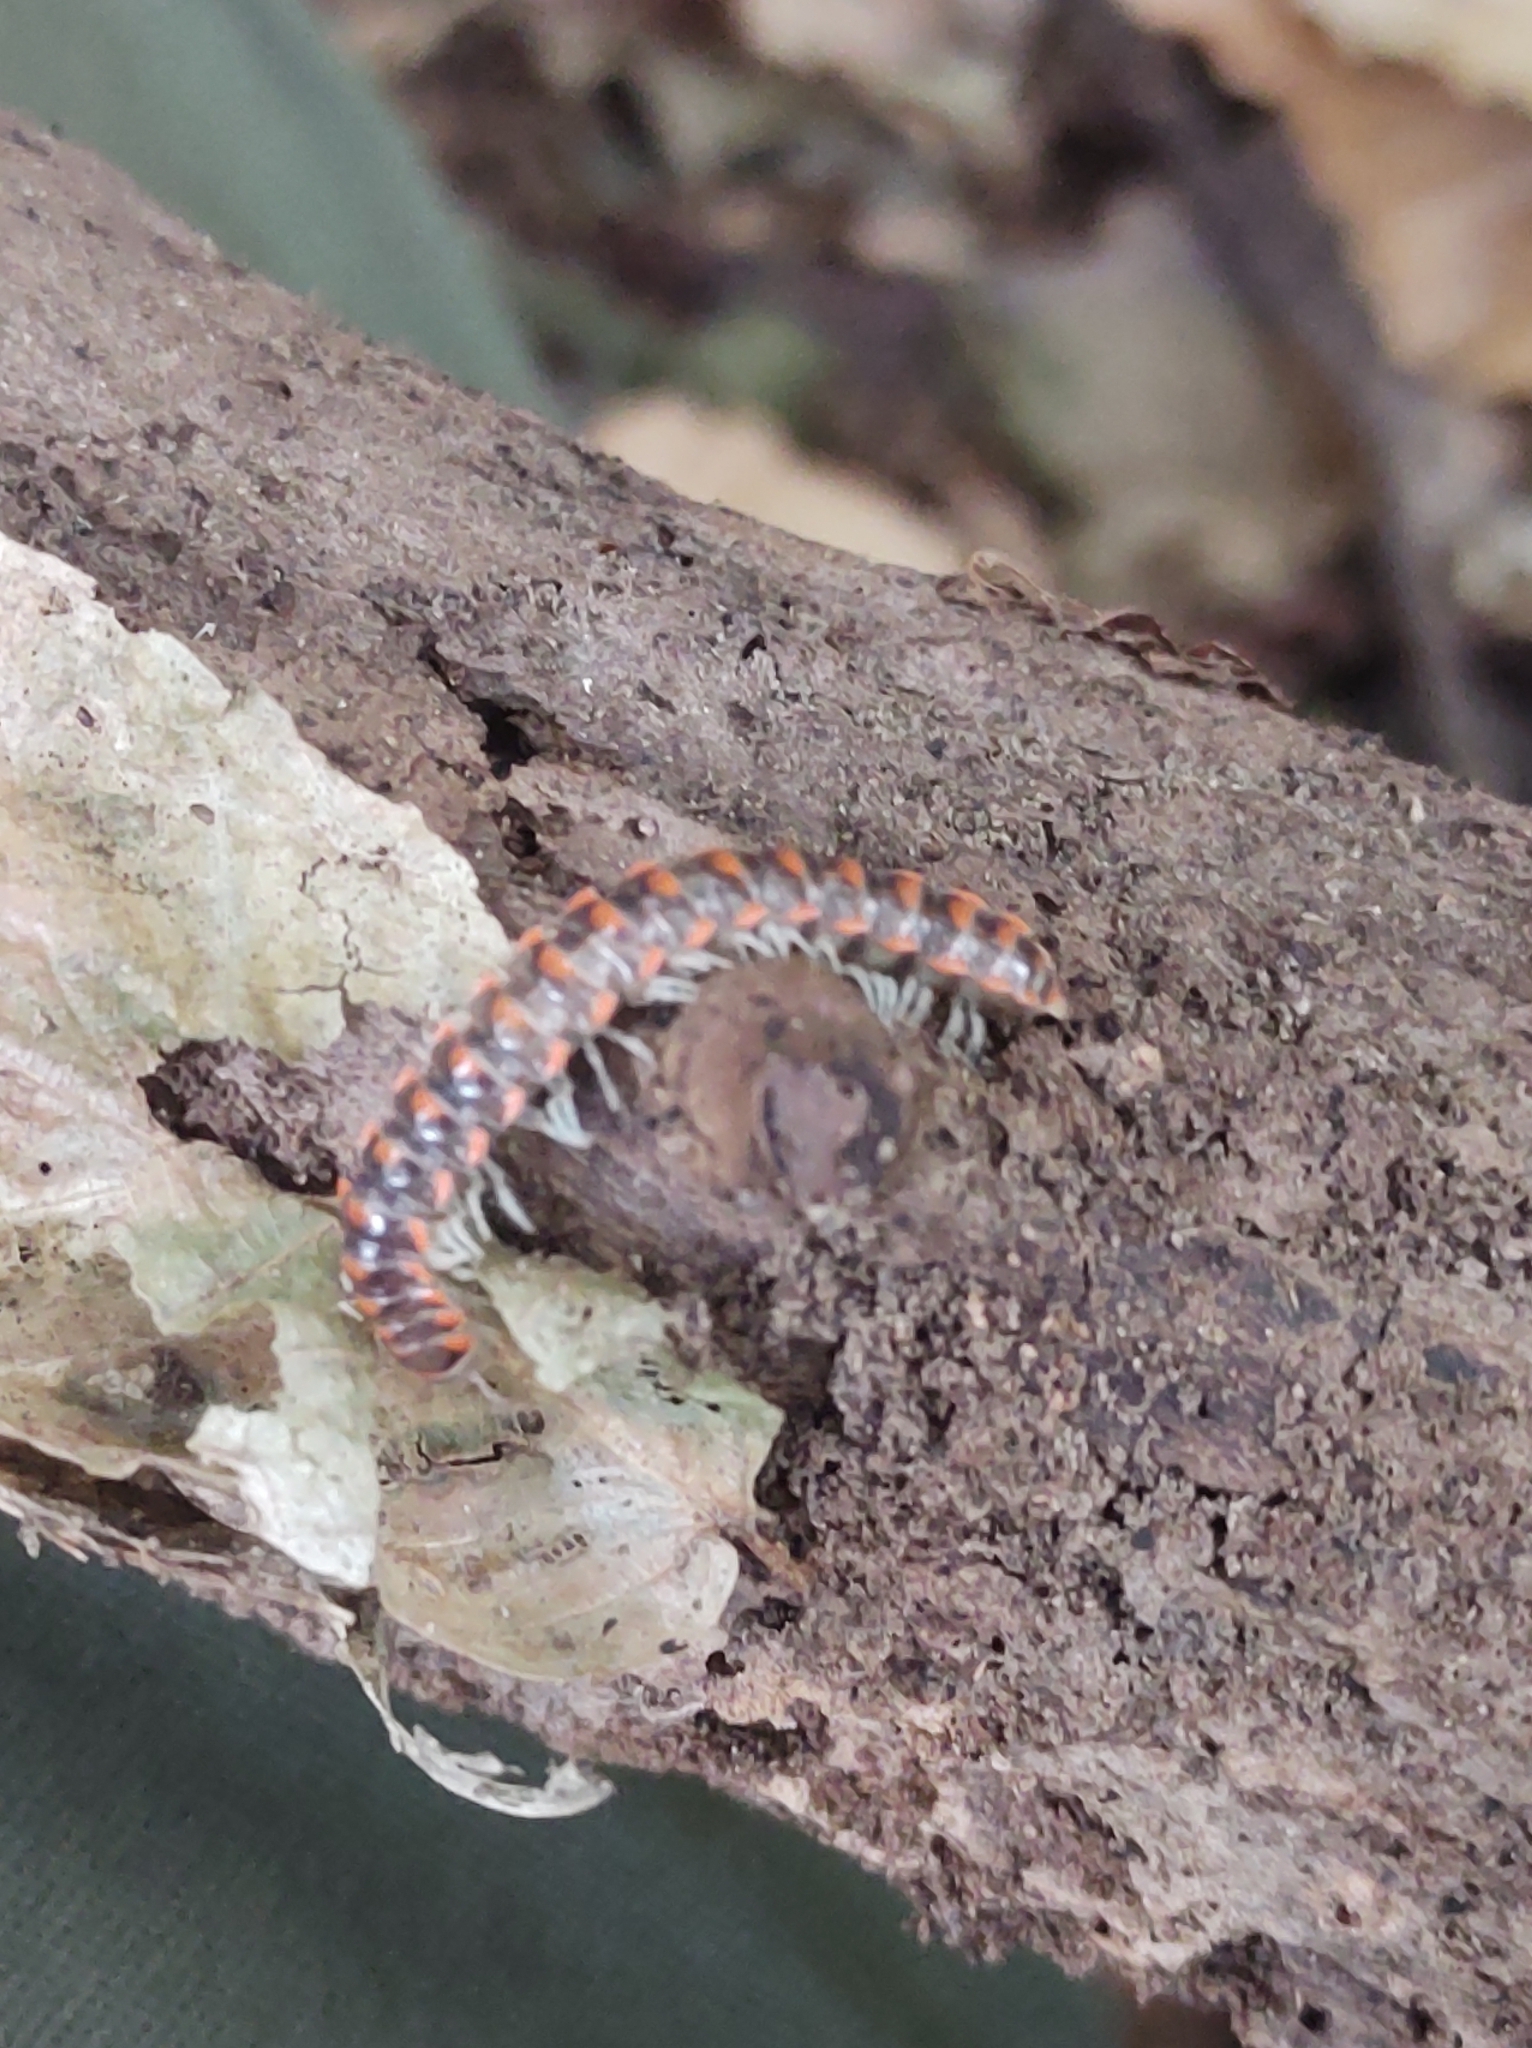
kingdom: Animalia
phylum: Arthropoda
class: Diplopoda
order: Polydesmida
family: Xystodesmidae
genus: Euryurus
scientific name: Euryurus maculatus
